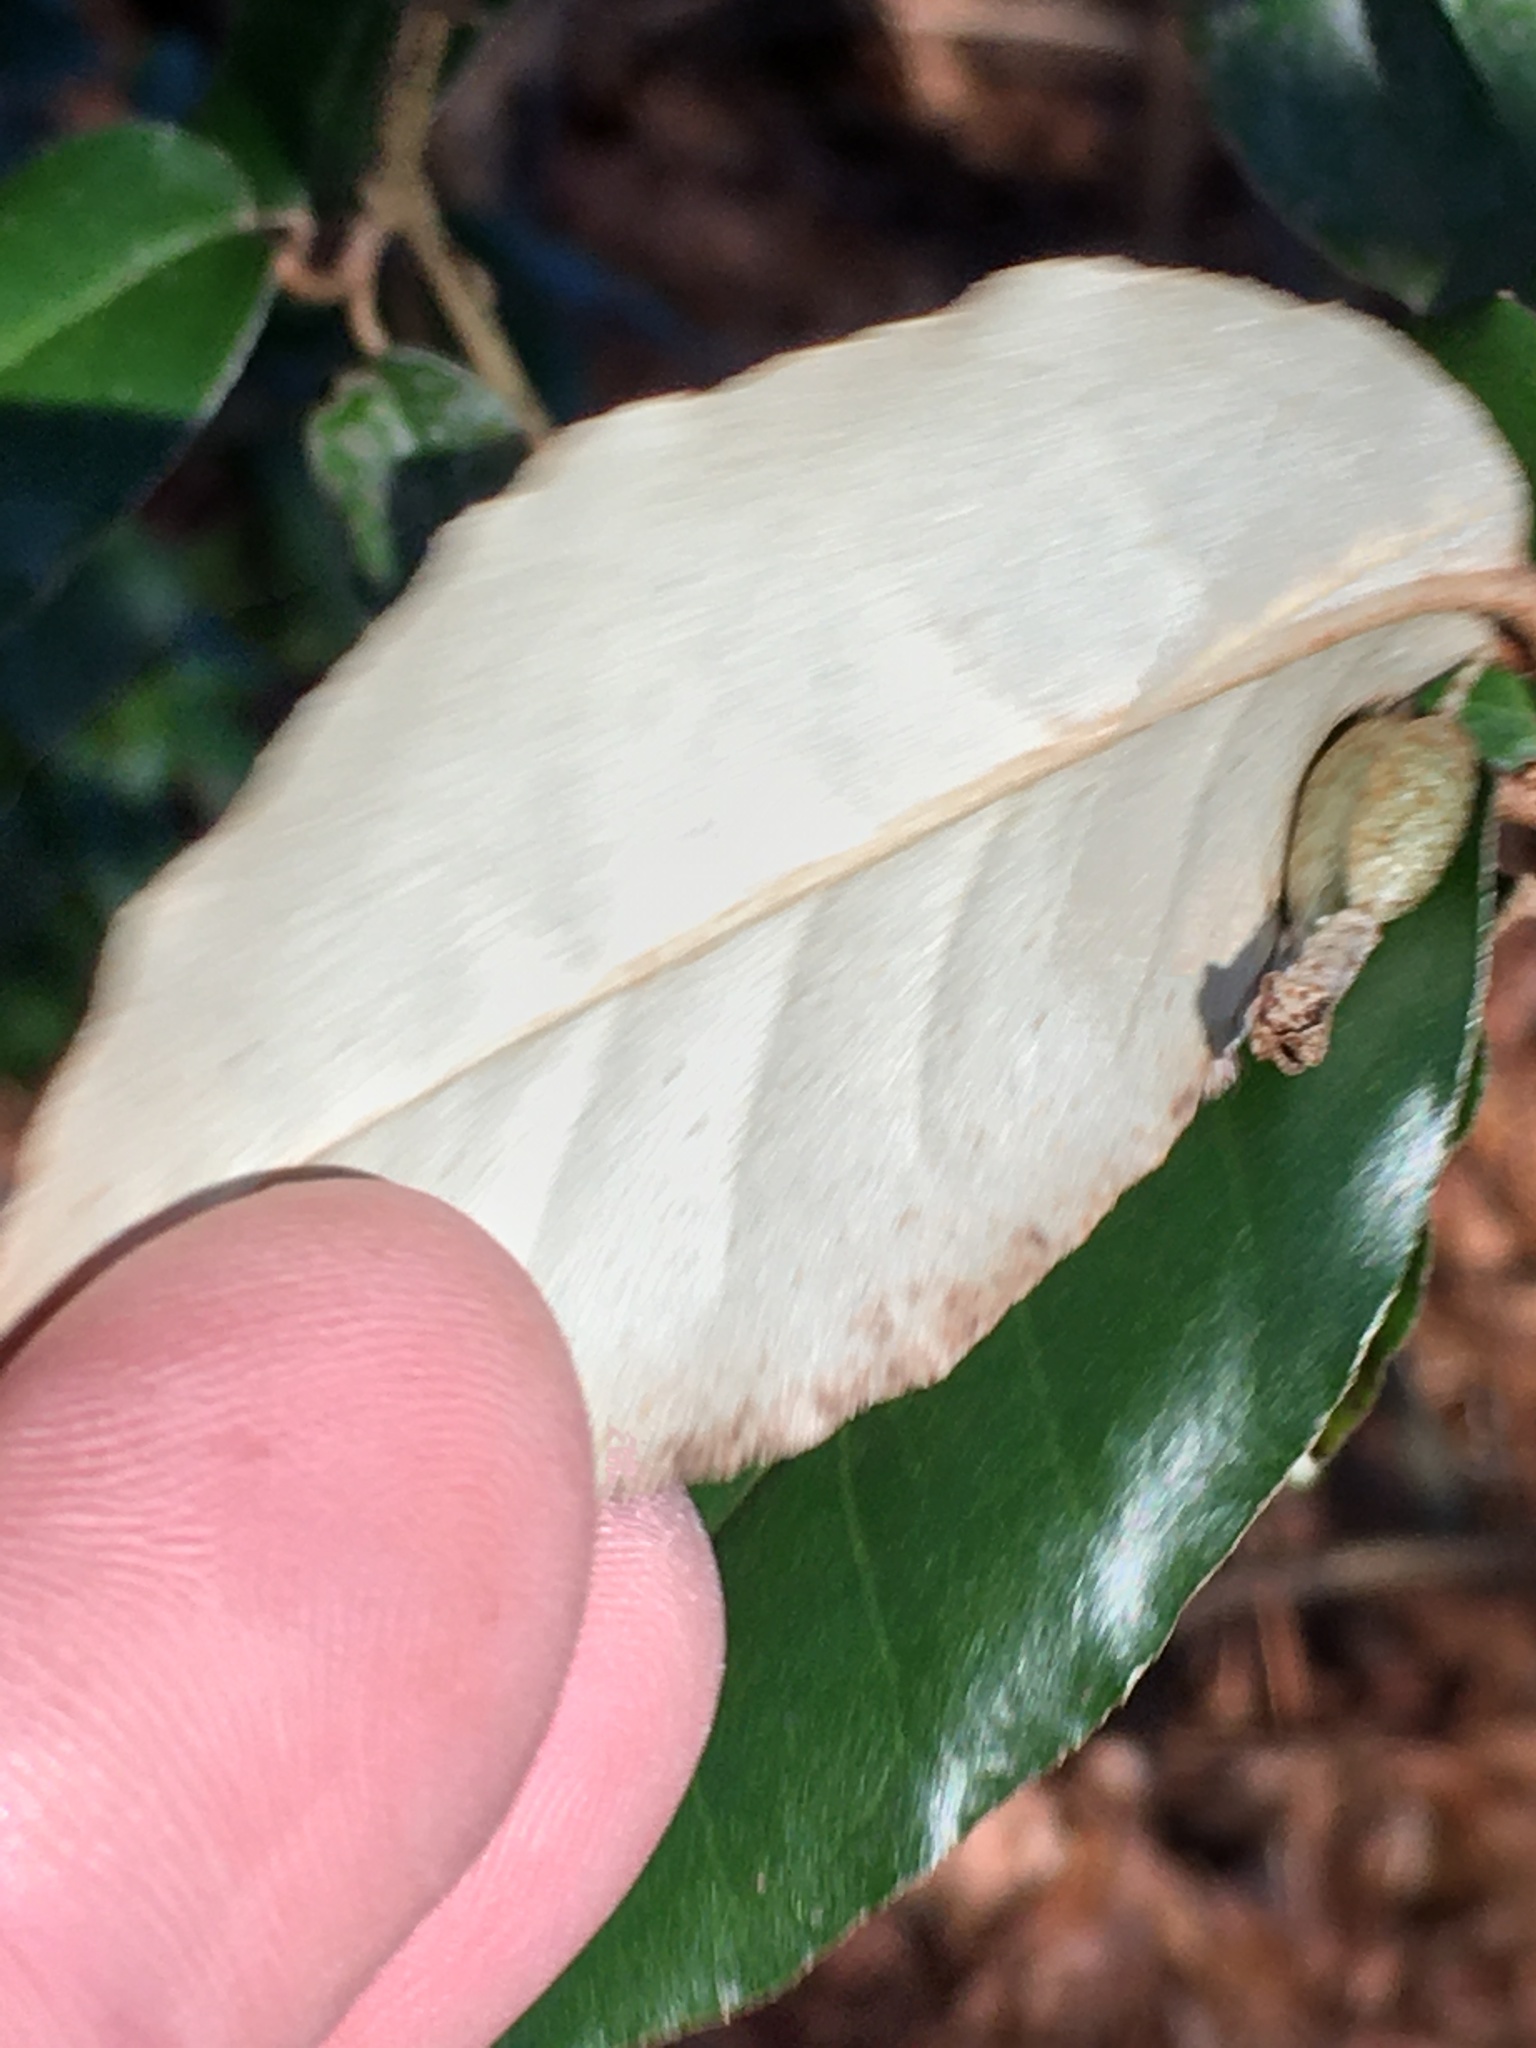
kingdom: Plantae
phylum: Tracheophyta
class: Magnoliopsida
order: Rosales
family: Elaeagnaceae
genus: Elaeagnus
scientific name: Elaeagnus pungens
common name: Spiny oleaster
